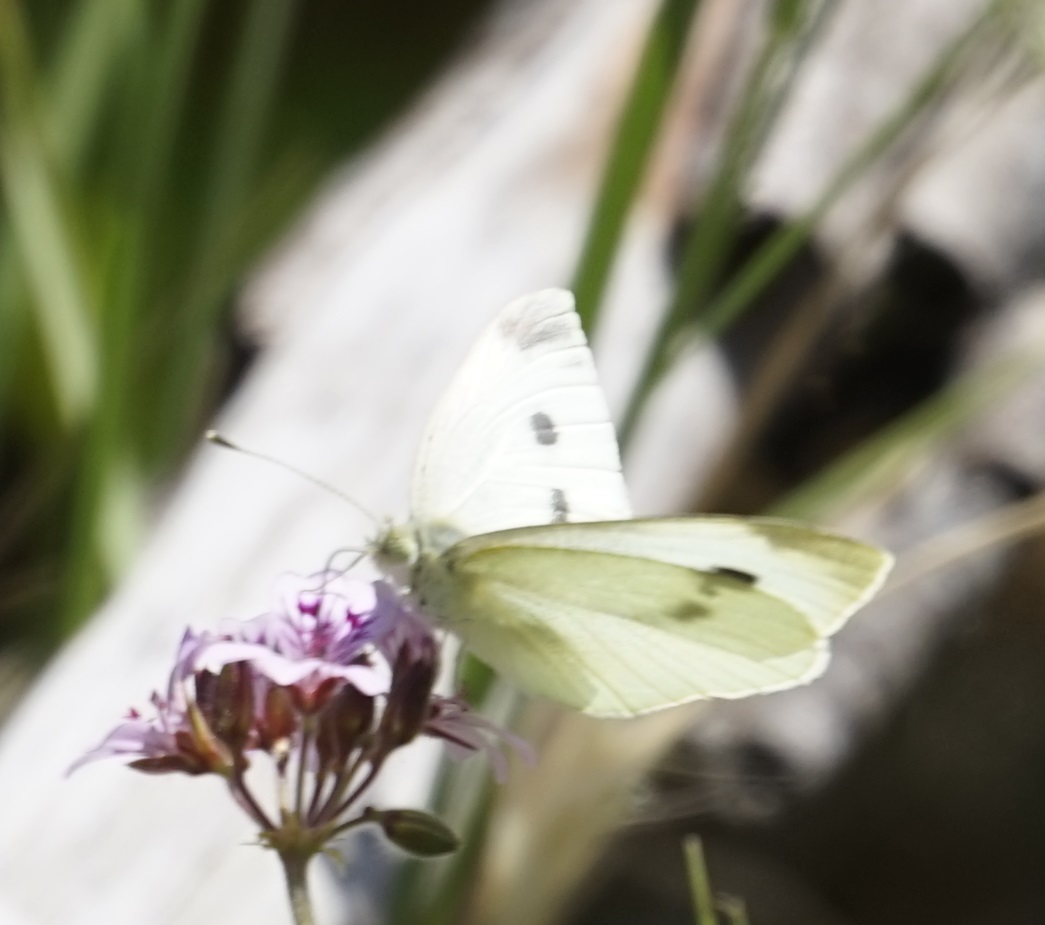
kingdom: Animalia
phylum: Arthropoda
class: Insecta
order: Lepidoptera
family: Pieridae
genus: Pieris
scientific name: Pieris rapae
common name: Small white
